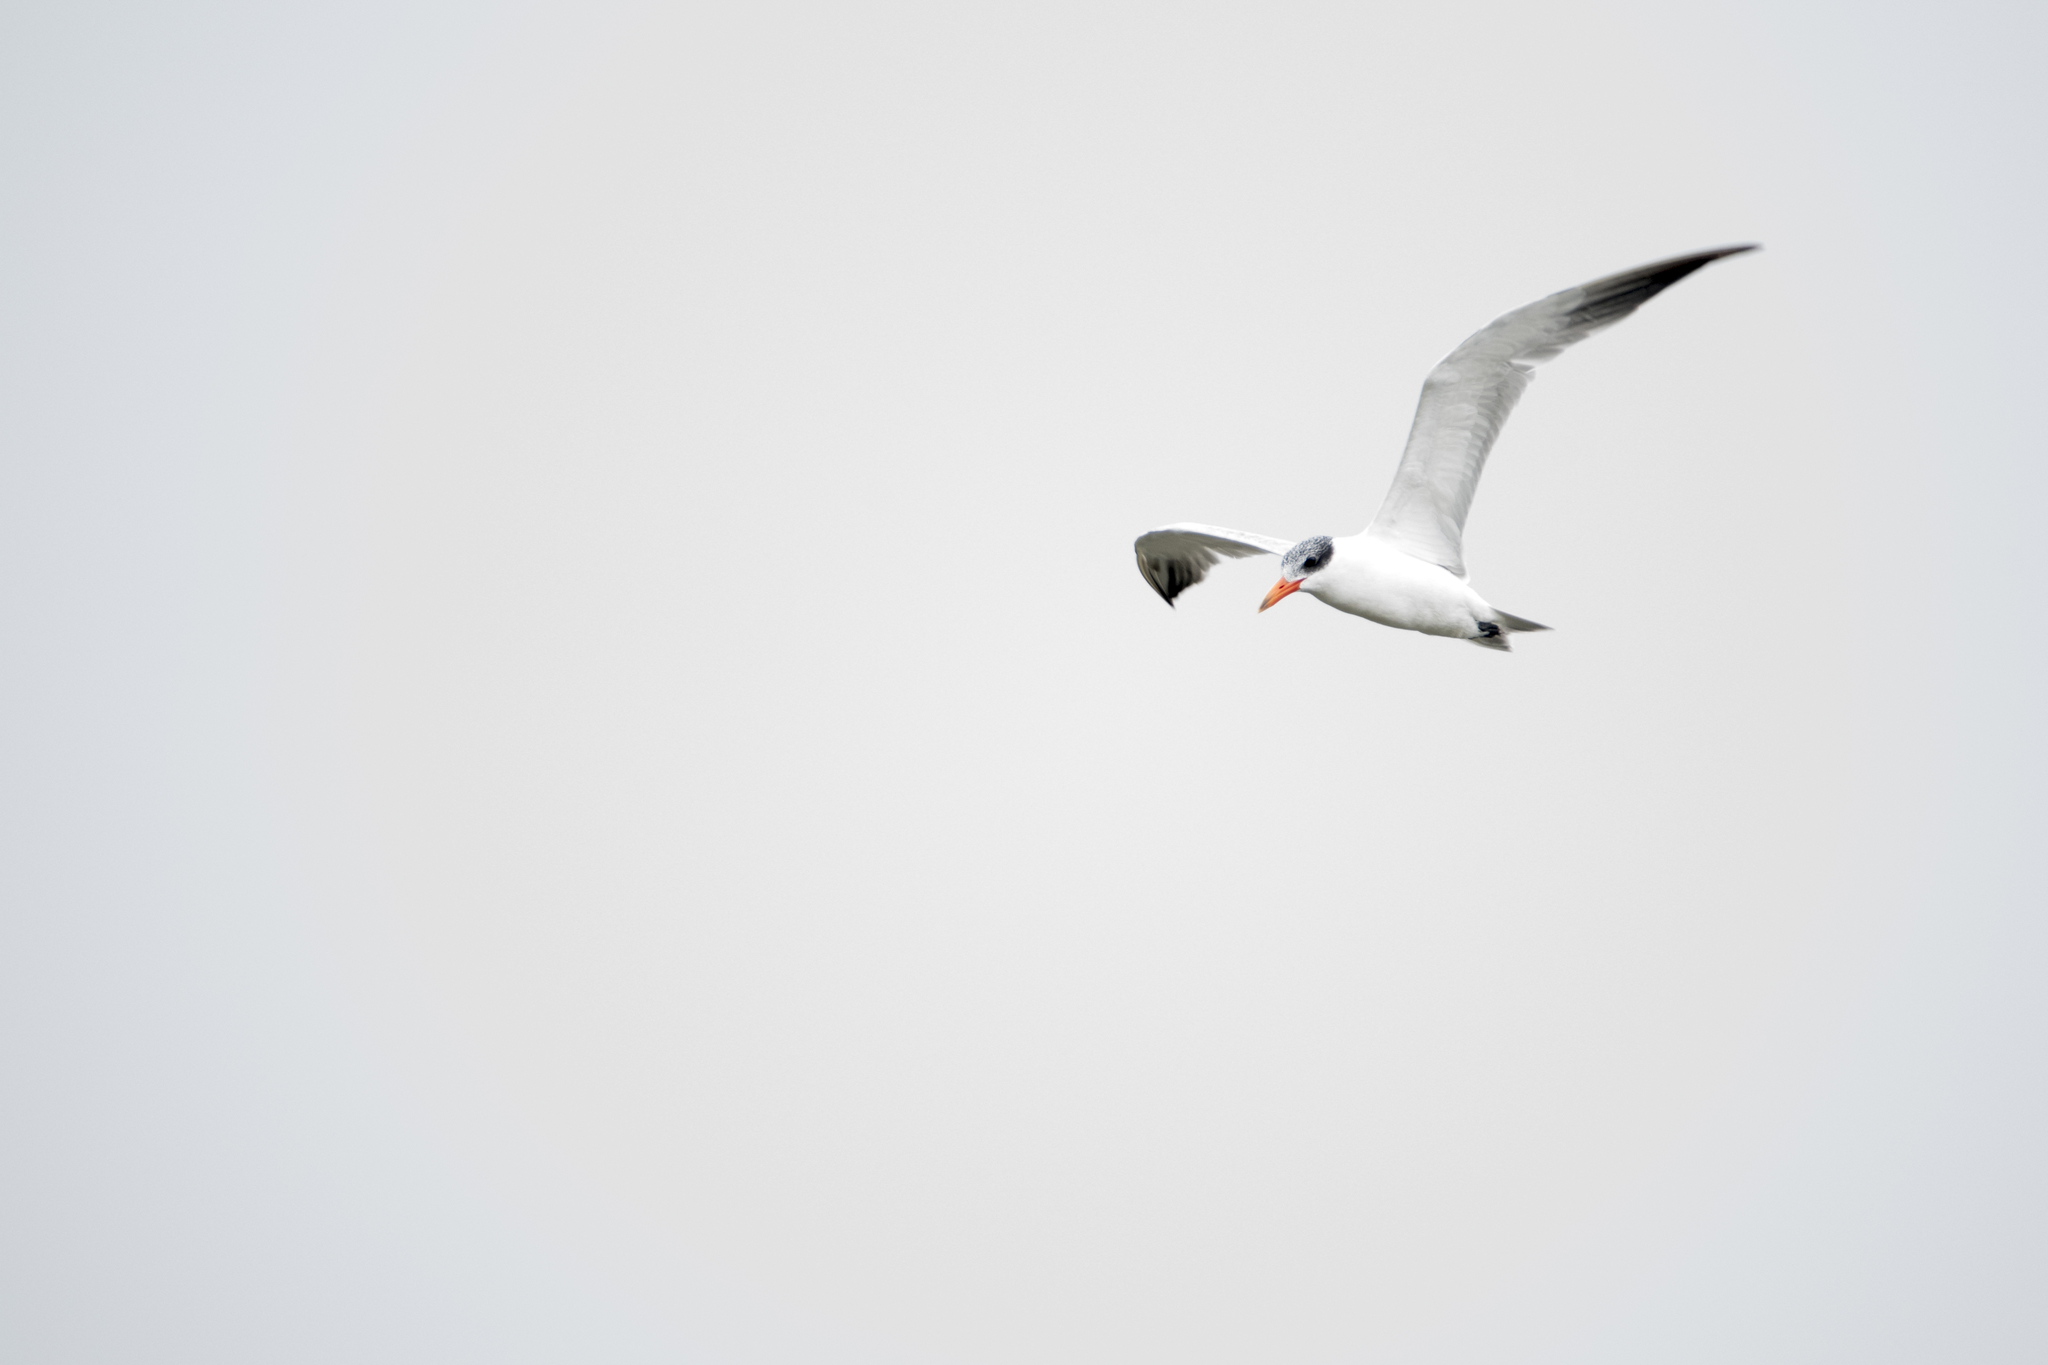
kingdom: Animalia
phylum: Chordata
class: Aves
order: Charadriiformes
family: Laridae
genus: Hydroprogne
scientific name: Hydroprogne caspia
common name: Caspian tern
